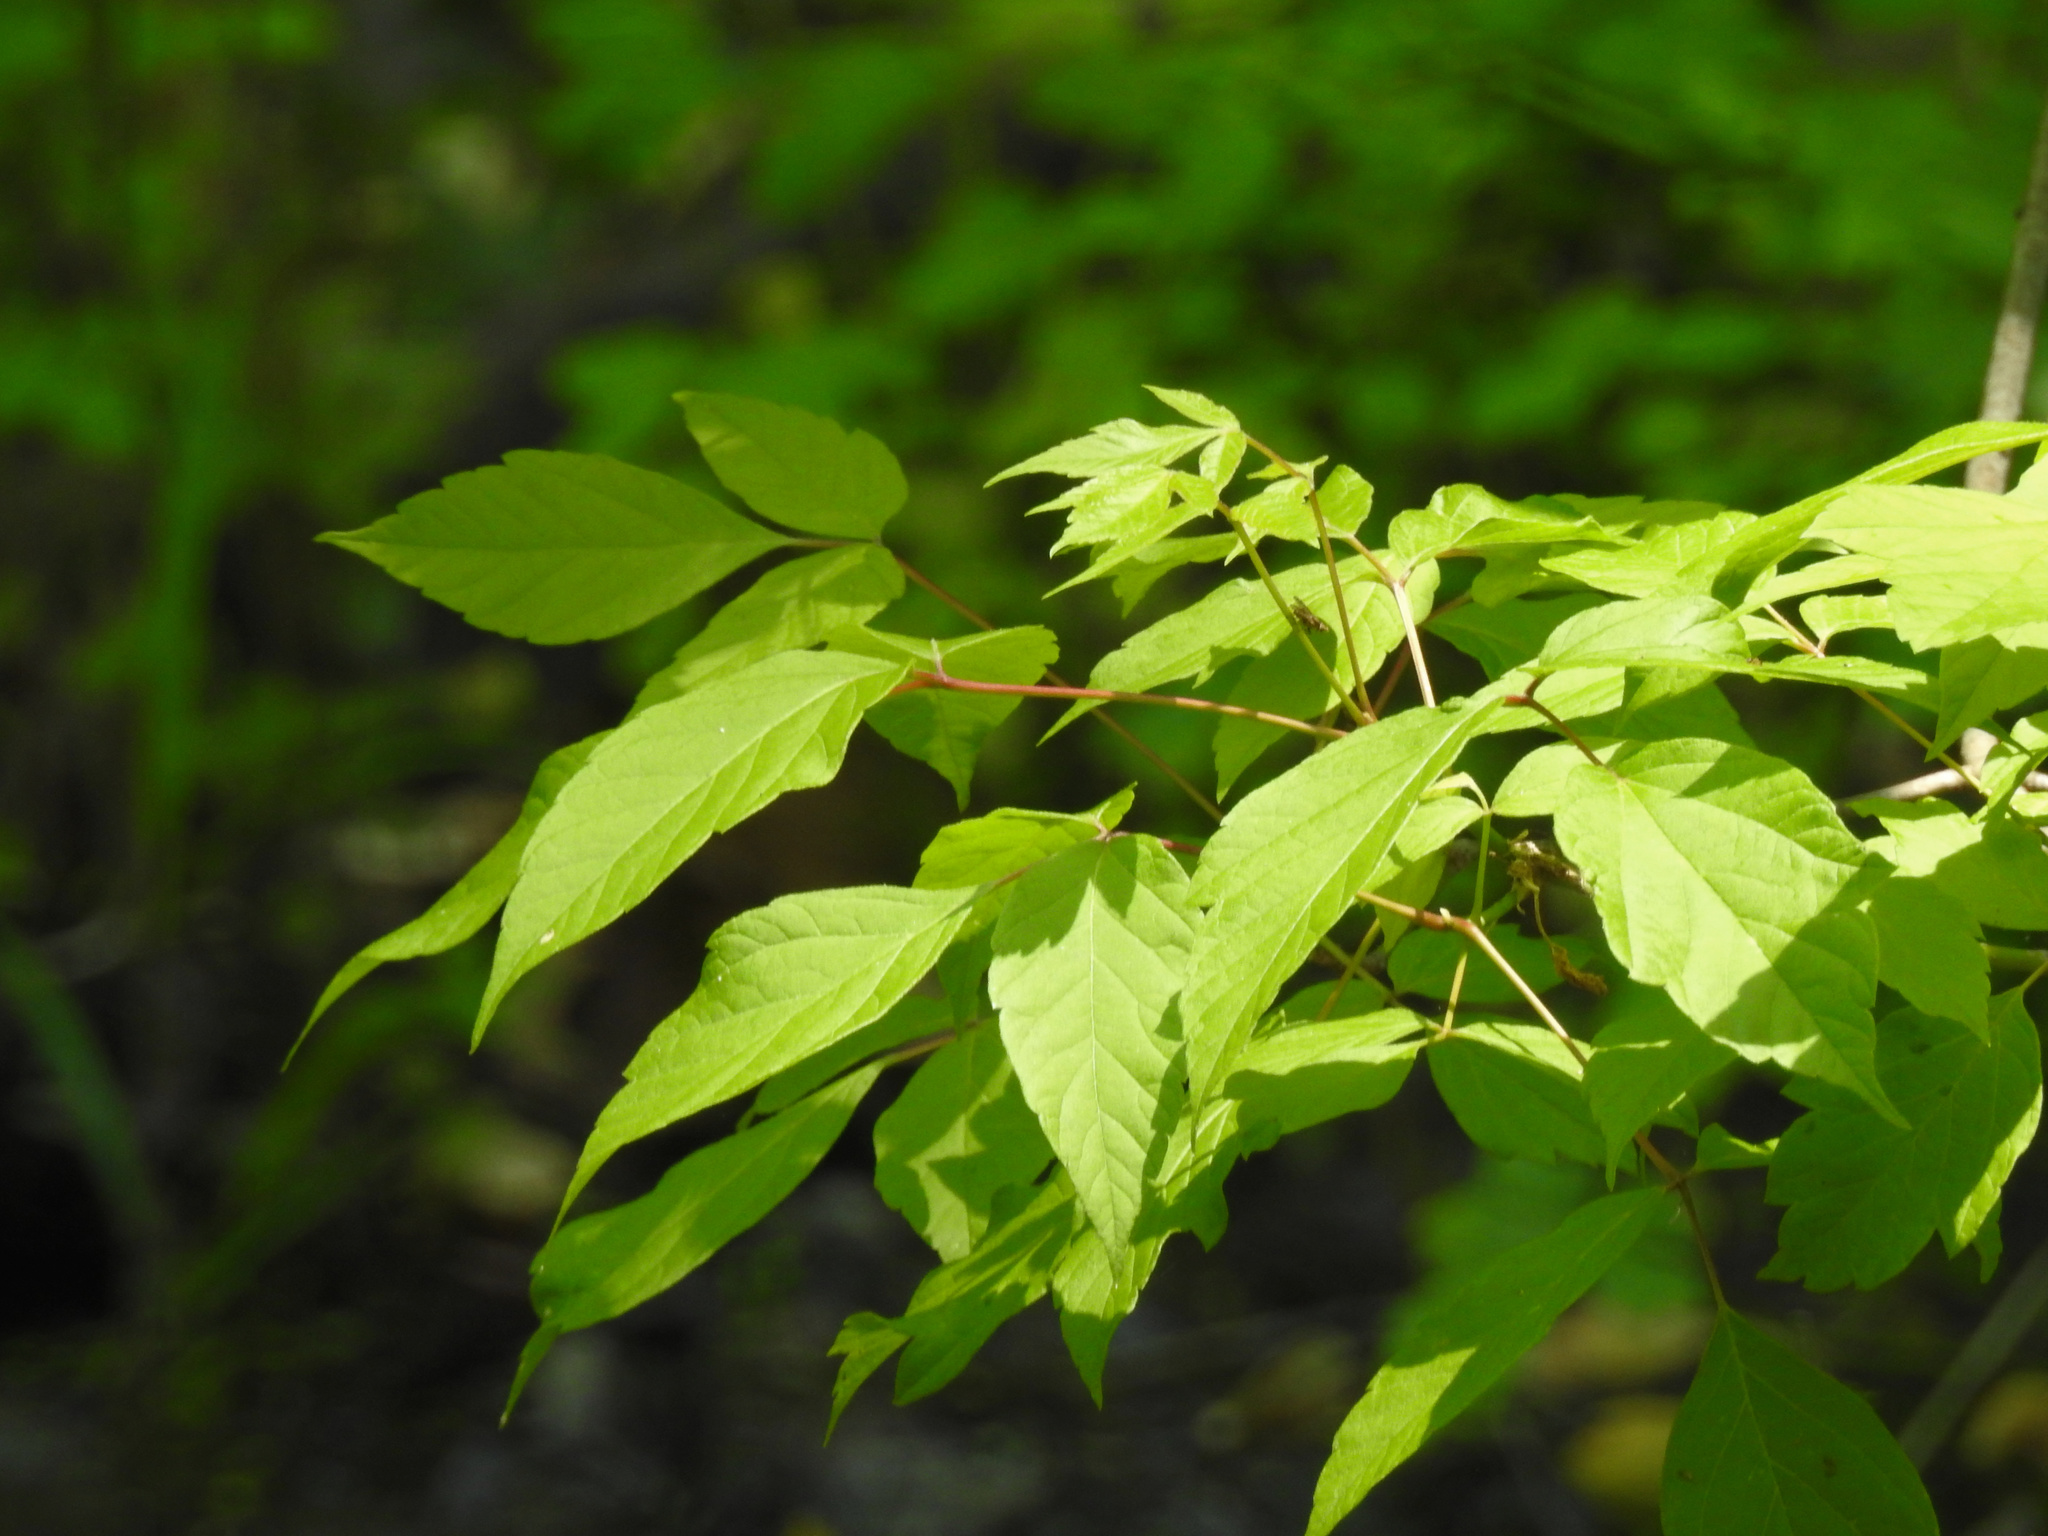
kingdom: Plantae
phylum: Tracheophyta
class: Magnoliopsida
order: Sapindales
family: Sapindaceae
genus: Acer
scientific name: Acer negundo
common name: Ashleaf maple
